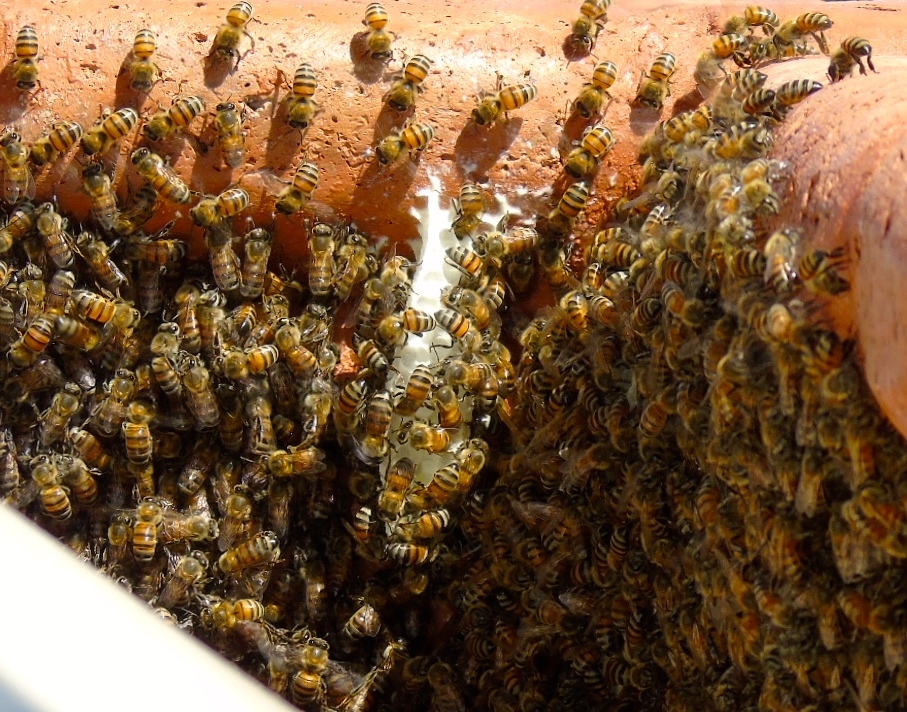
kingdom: Animalia
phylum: Arthropoda
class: Insecta
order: Hymenoptera
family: Apidae
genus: Apis
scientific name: Apis mellifera
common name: Honey bee
